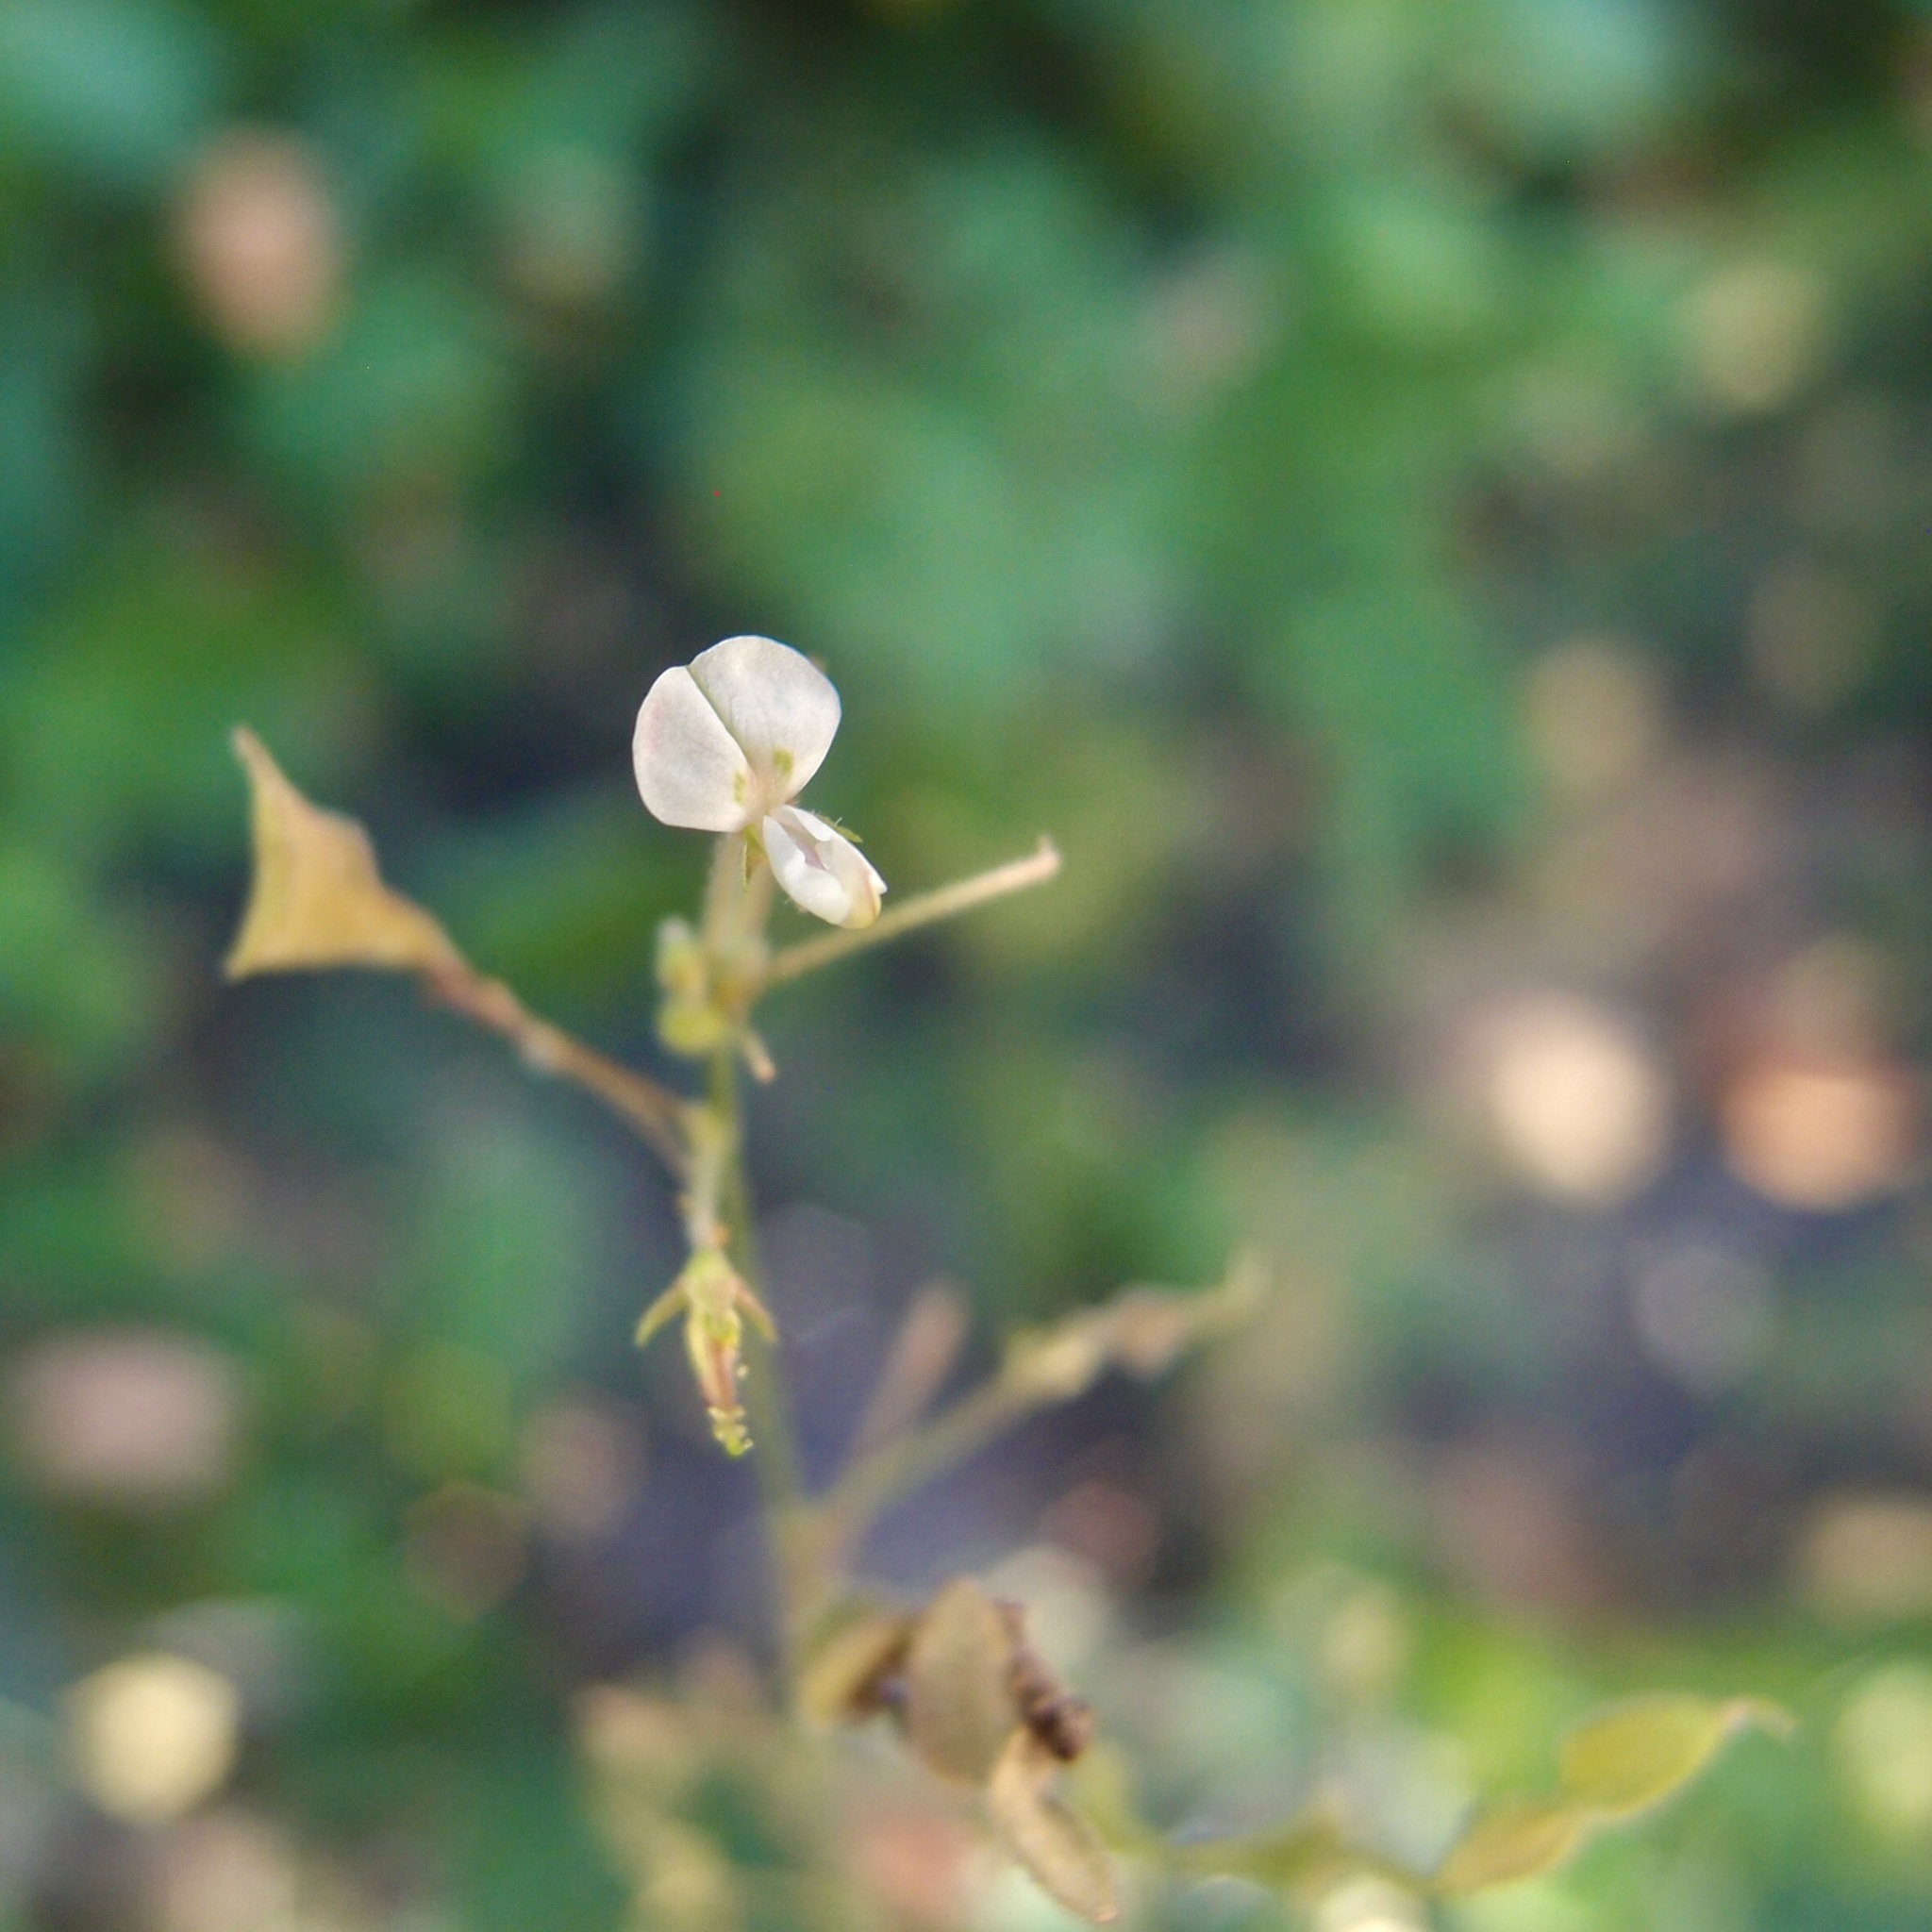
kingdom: Plantae
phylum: Tracheophyta
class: Magnoliopsida
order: Fabales
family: Fabaceae
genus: Desmodium
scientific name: Desmodium procumbens
